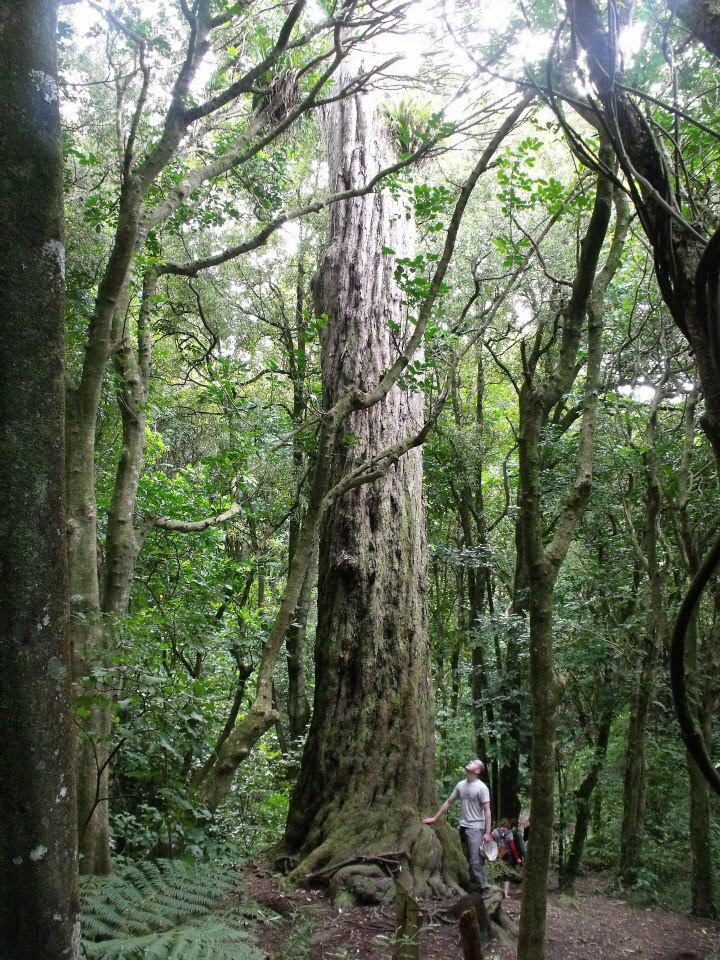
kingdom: Plantae
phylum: Tracheophyta
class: Pinopsida
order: Pinales
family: Podocarpaceae
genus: Dacrydium
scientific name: Dacrydium cupressinum
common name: Red pine
